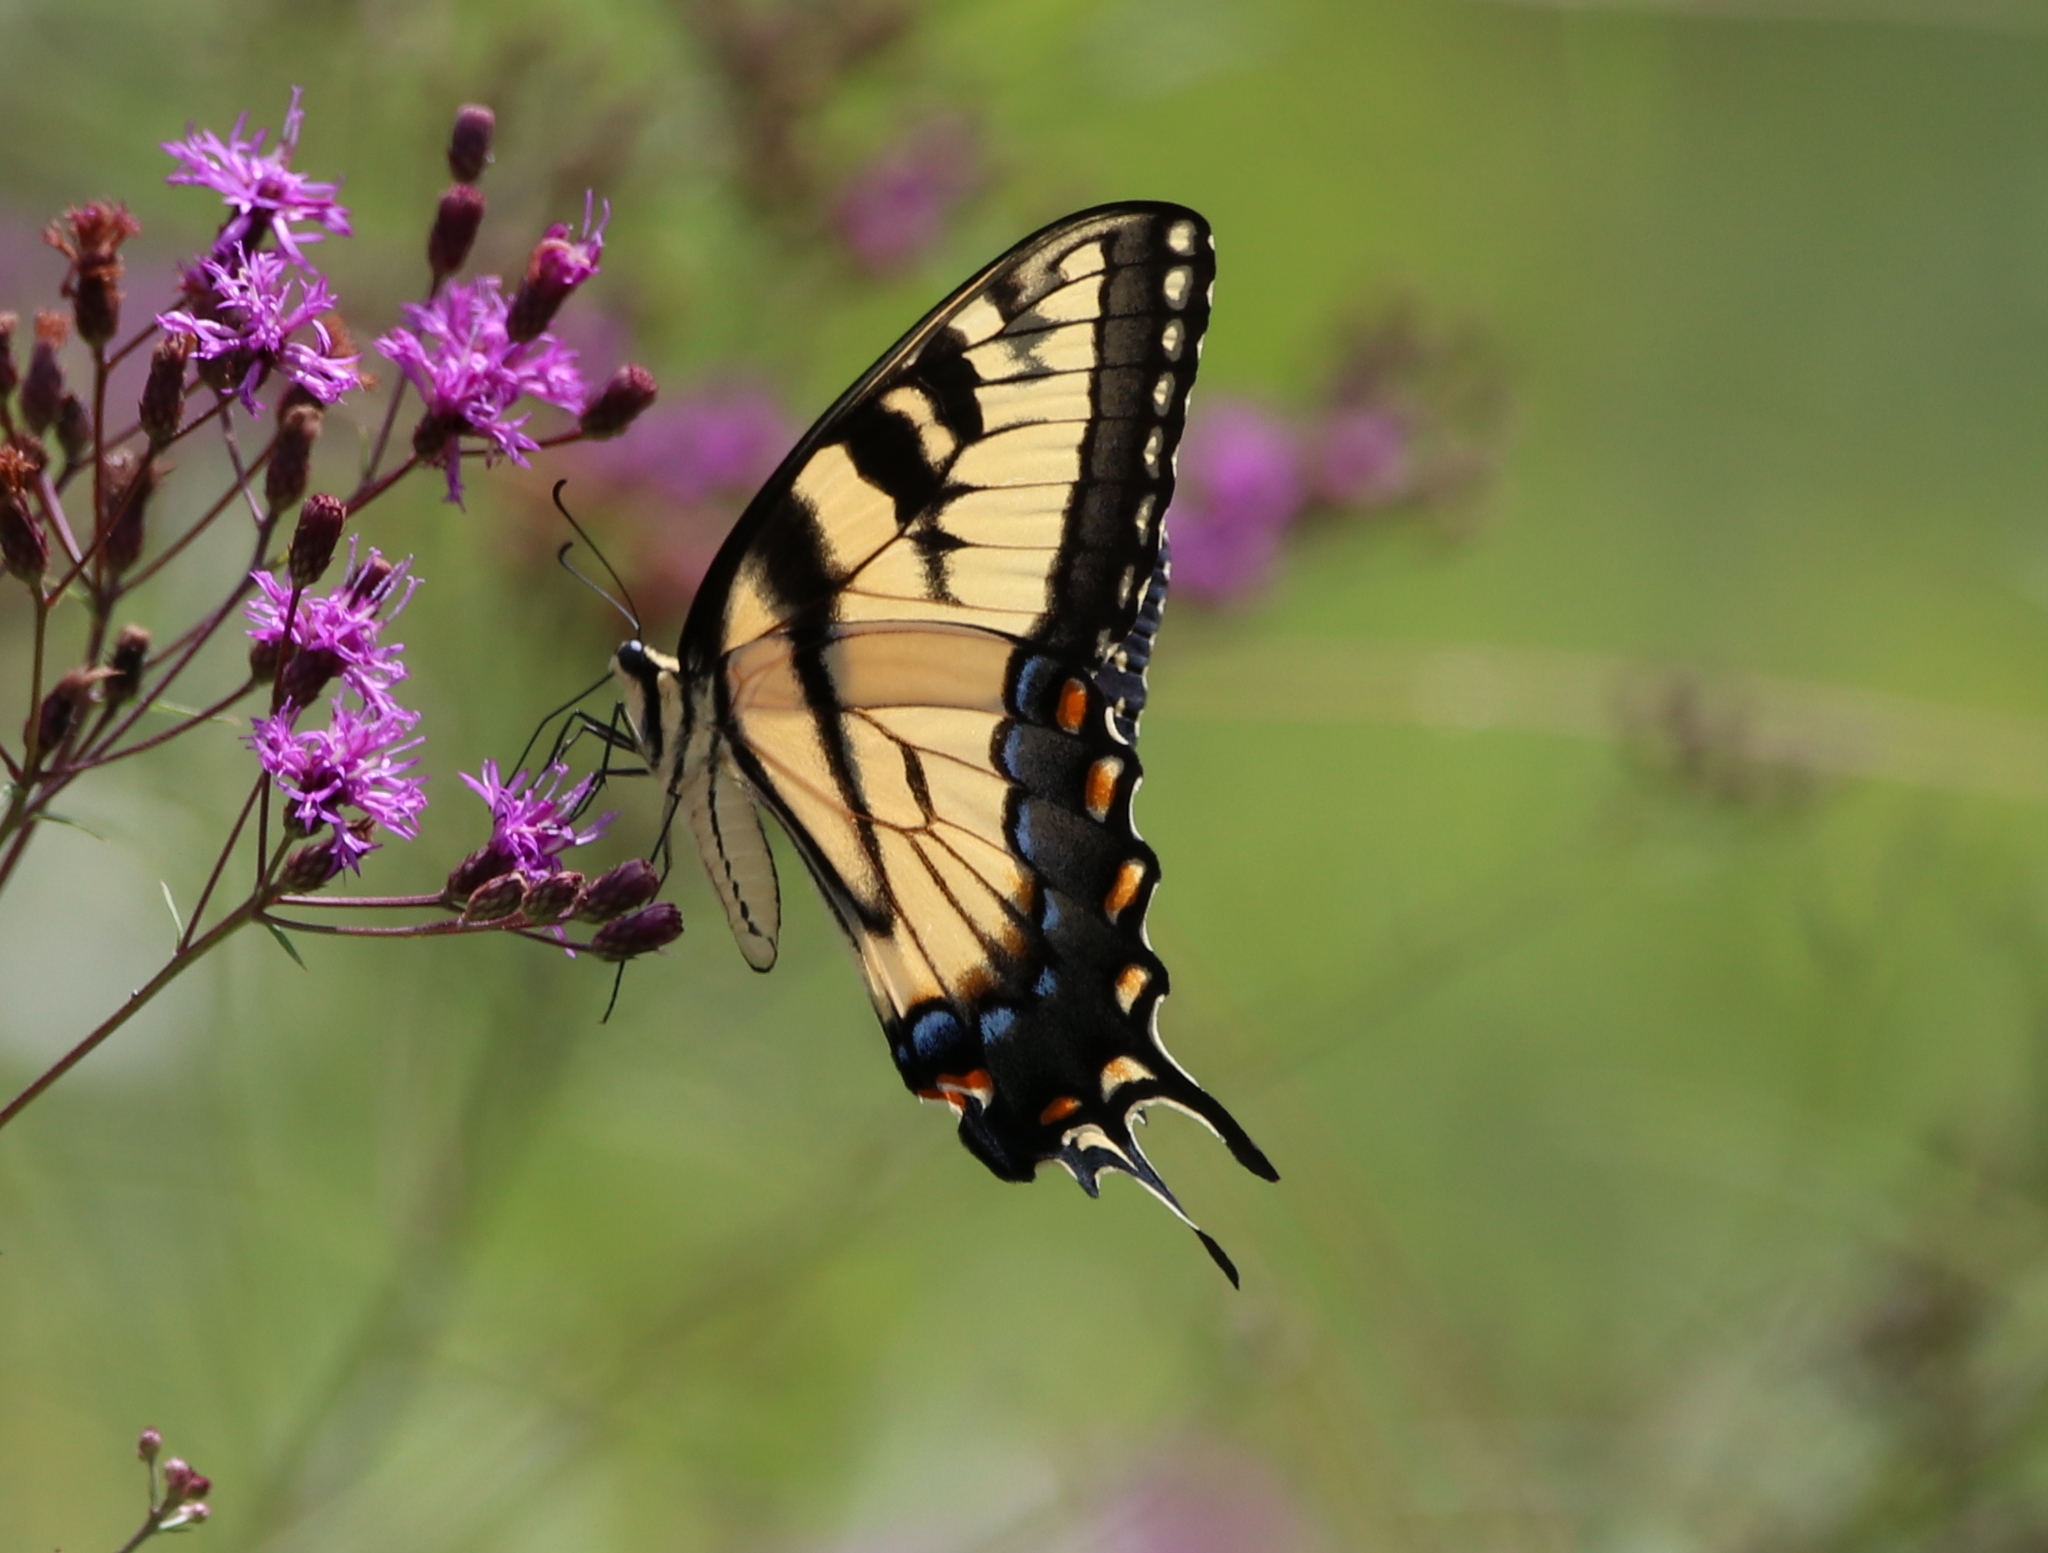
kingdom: Animalia
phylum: Arthropoda
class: Insecta
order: Lepidoptera
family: Papilionidae
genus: Papilio
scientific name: Papilio glaucus
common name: Tiger swallowtail
